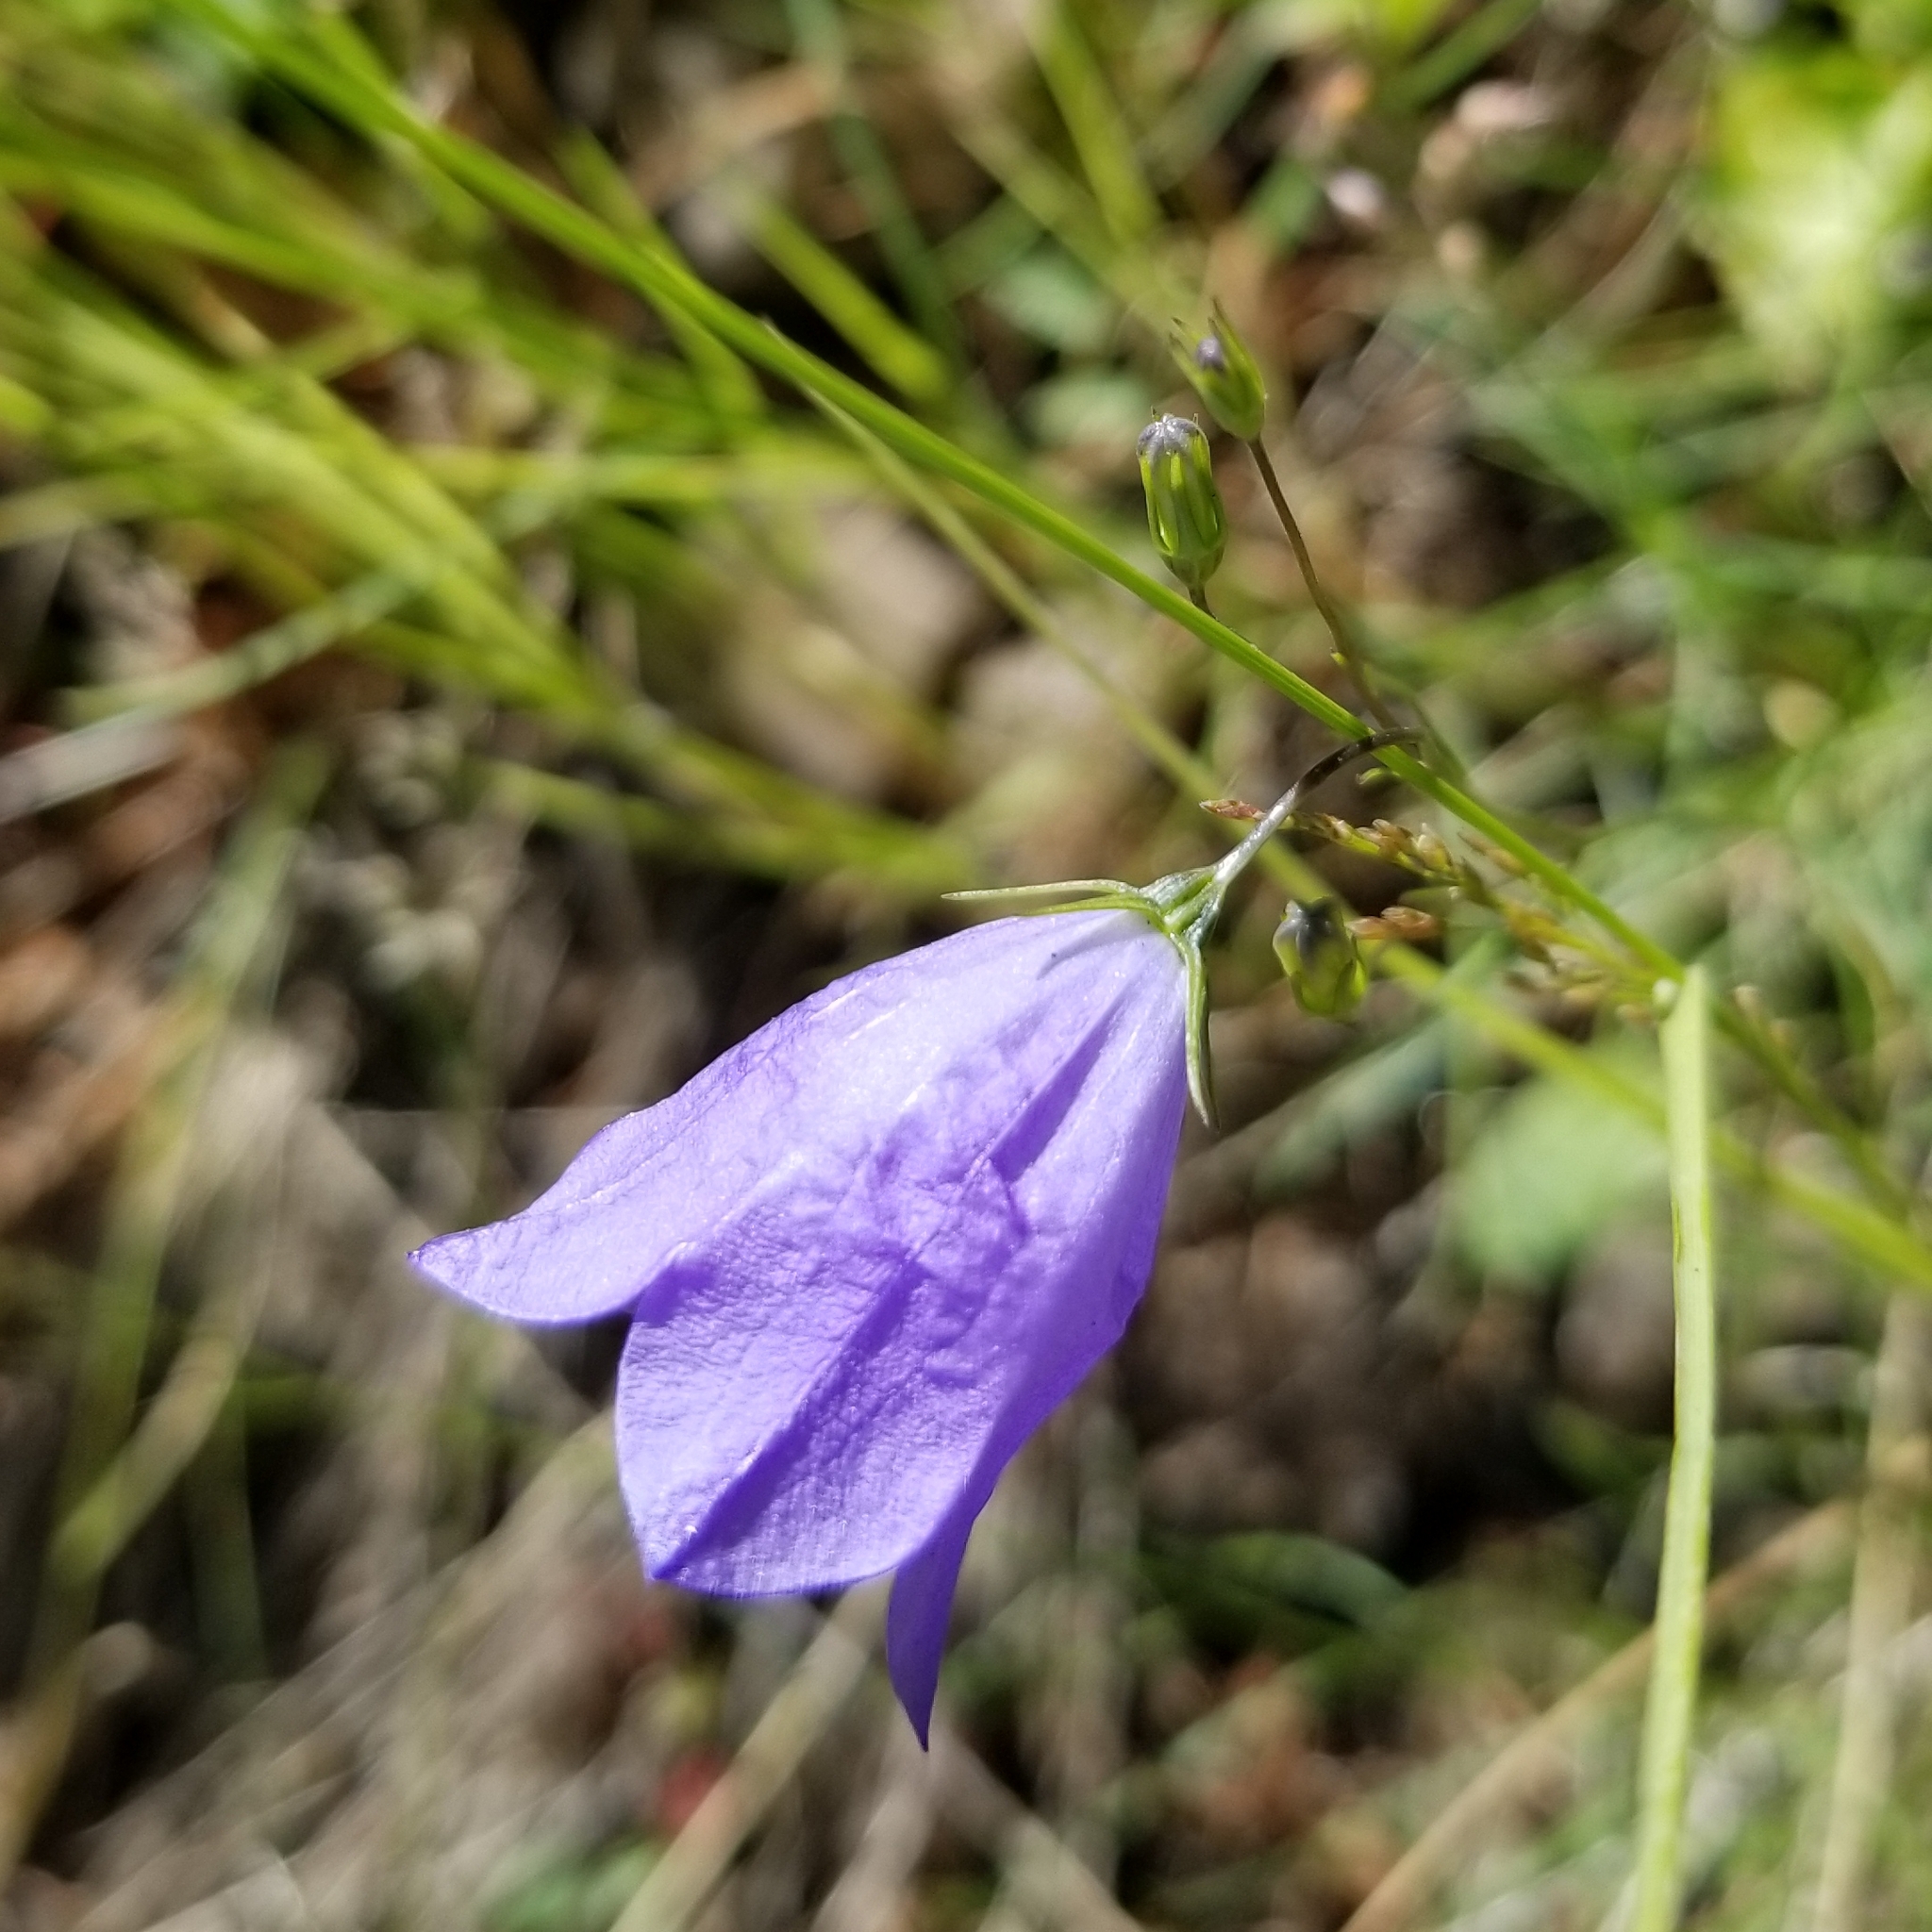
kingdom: Plantae
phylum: Tracheophyta
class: Magnoliopsida
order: Asterales
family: Campanulaceae
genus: Campanula
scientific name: Campanula petiolata
